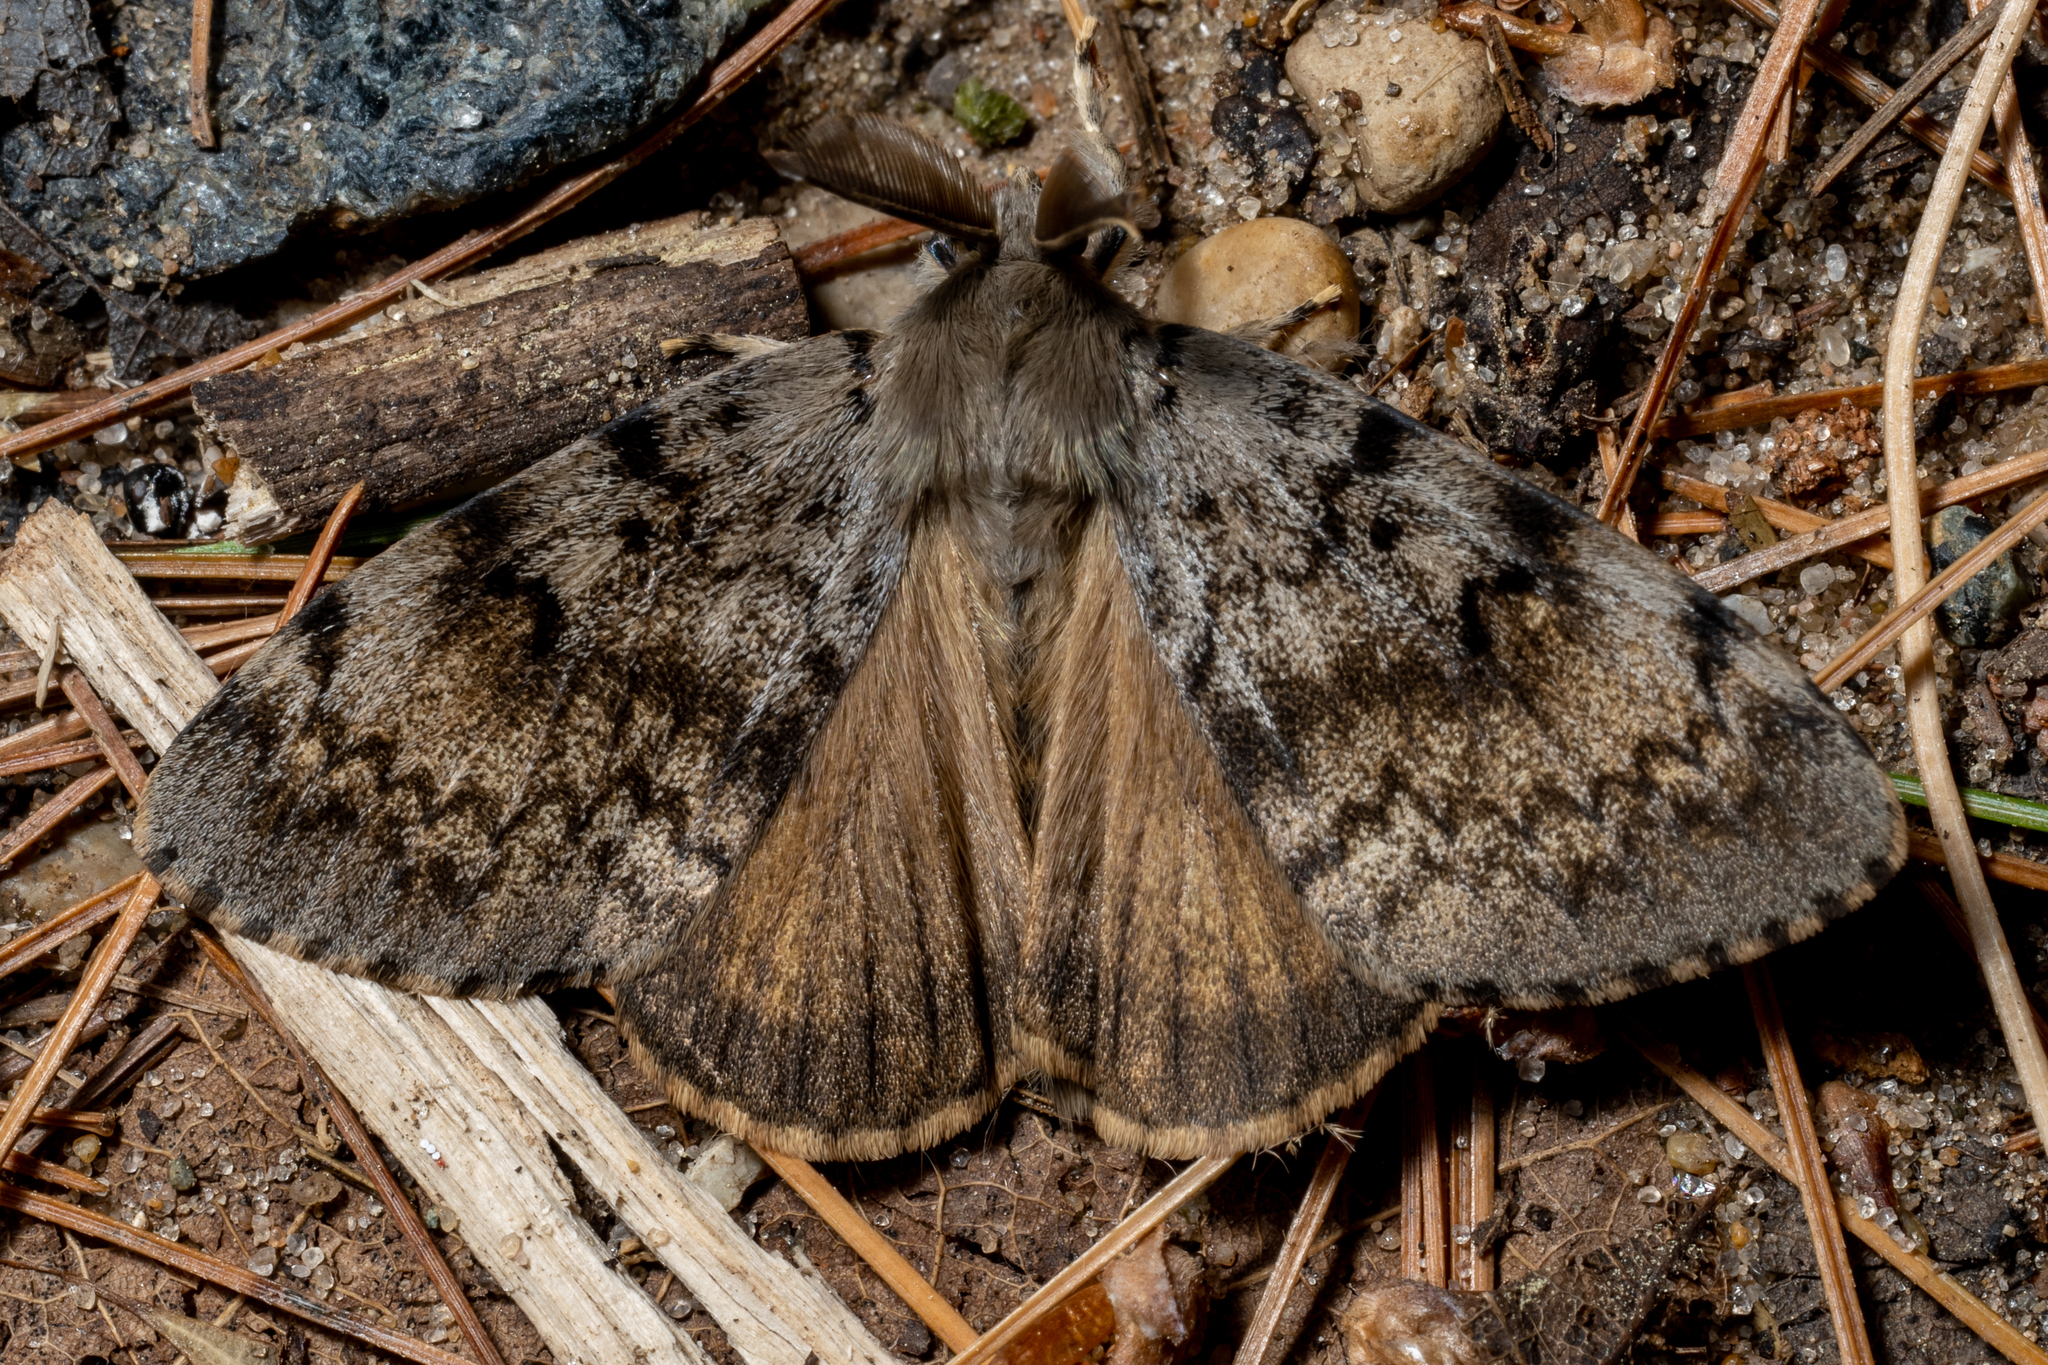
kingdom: Animalia
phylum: Arthropoda
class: Insecta
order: Lepidoptera
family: Erebidae
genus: Lymantria
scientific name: Lymantria dispar
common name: Gypsy moth
